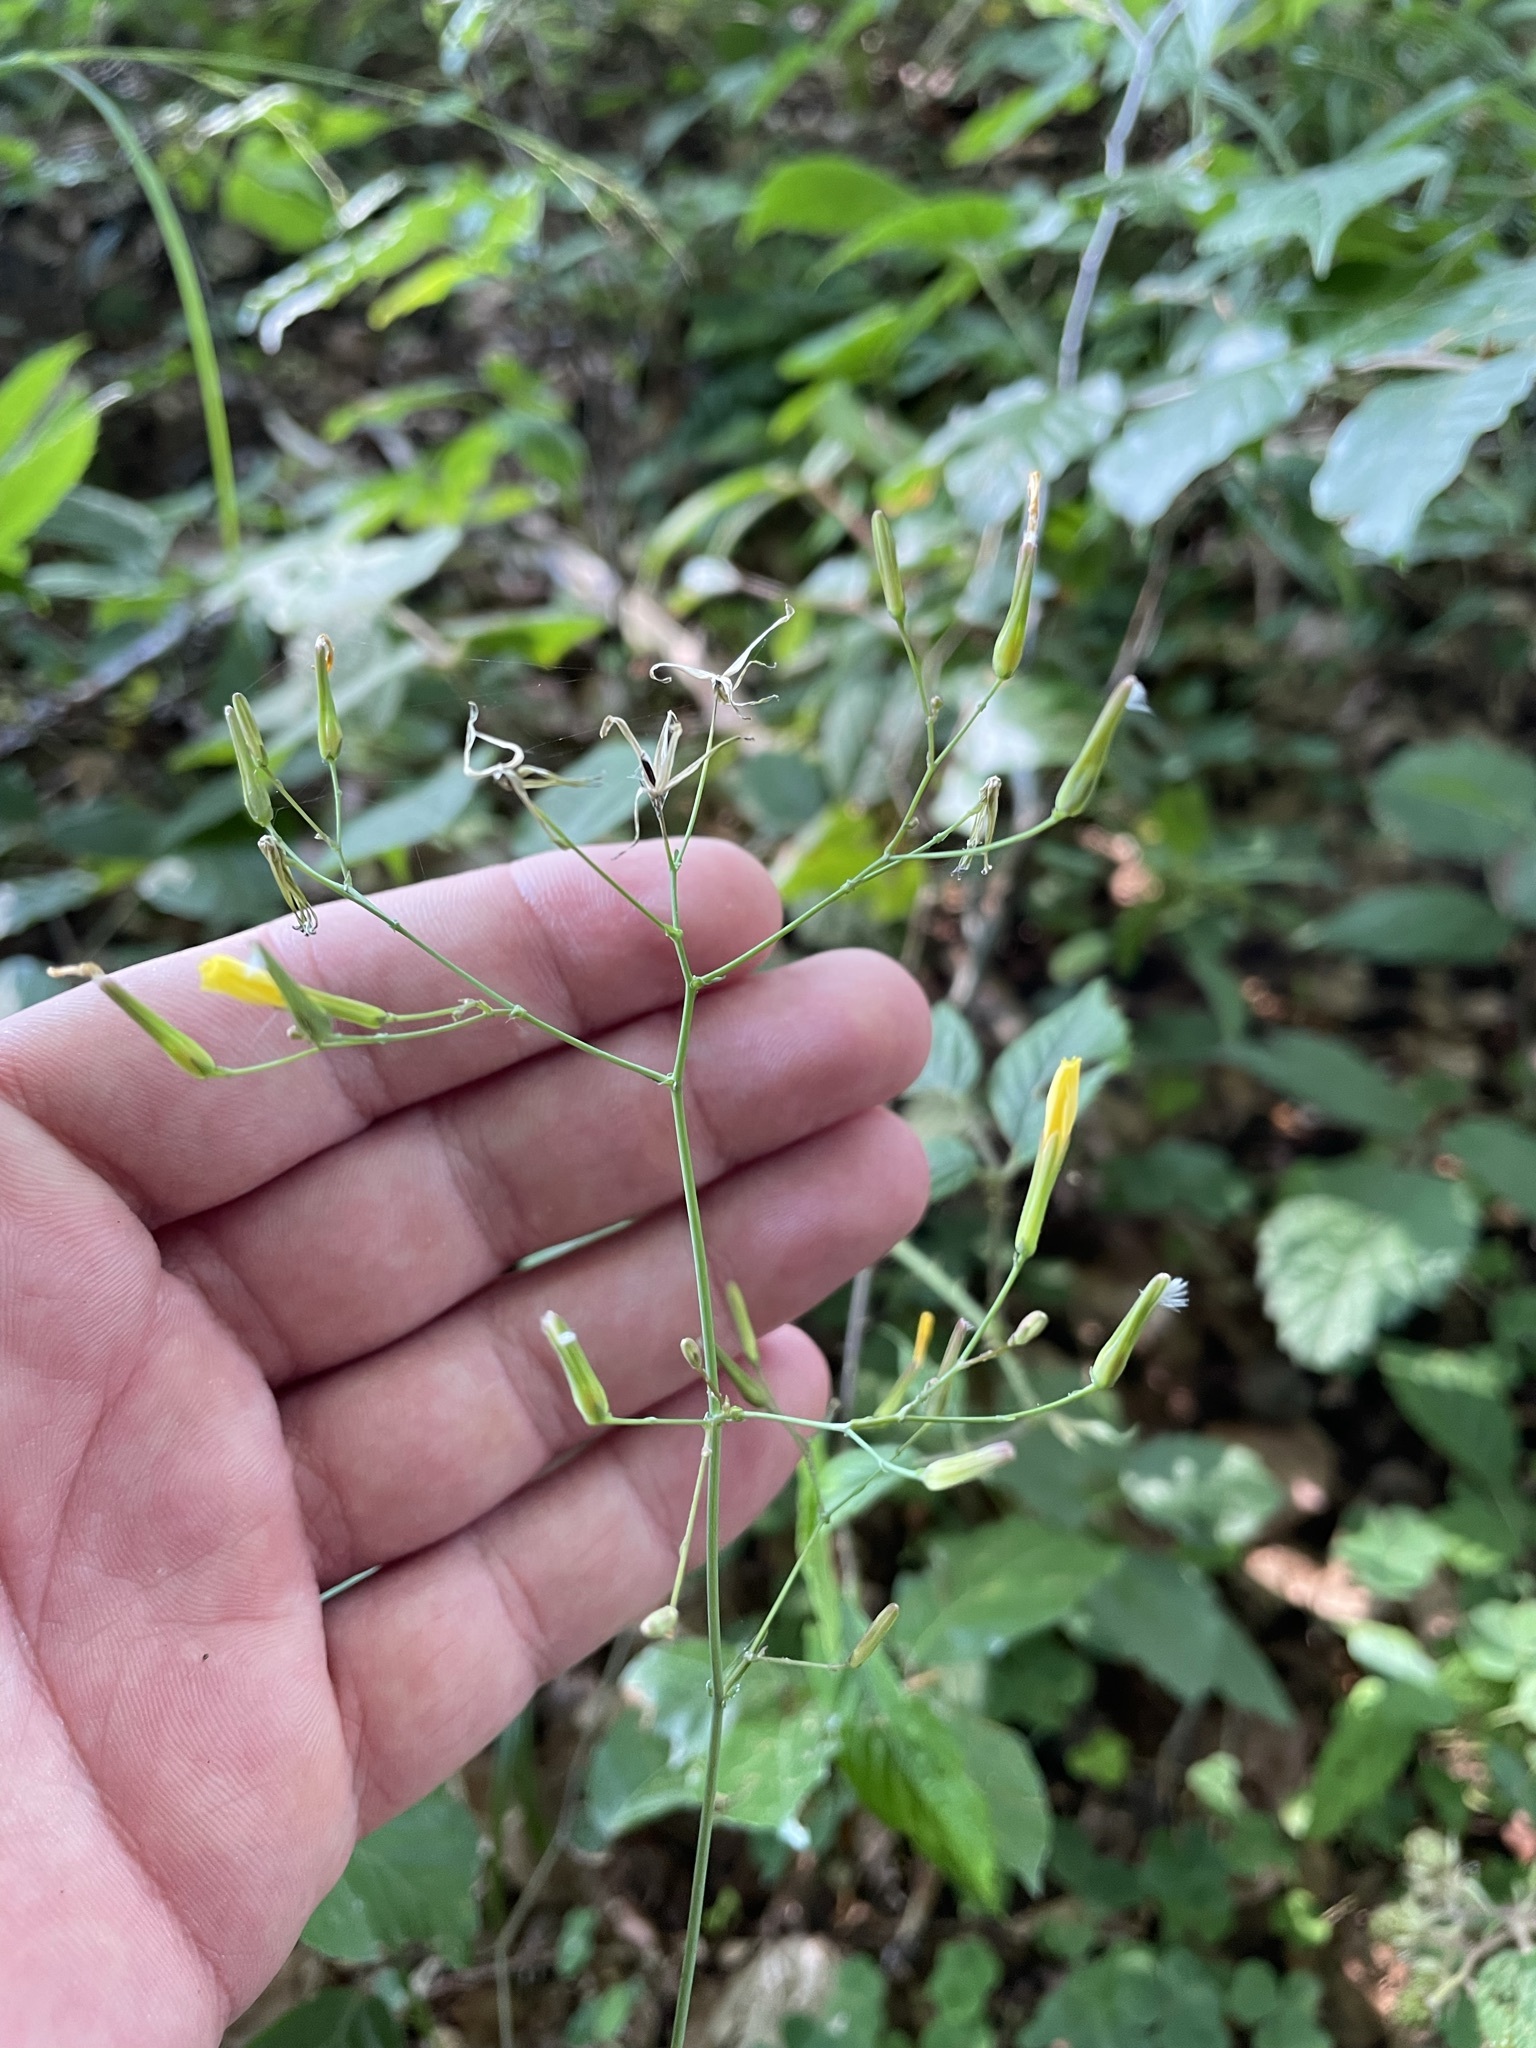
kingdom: Plantae
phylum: Tracheophyta
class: Magnoliopsida
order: Asterales
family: Asteraceae
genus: Mycelis
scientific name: Mycelis muralis
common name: Wall lettuce
